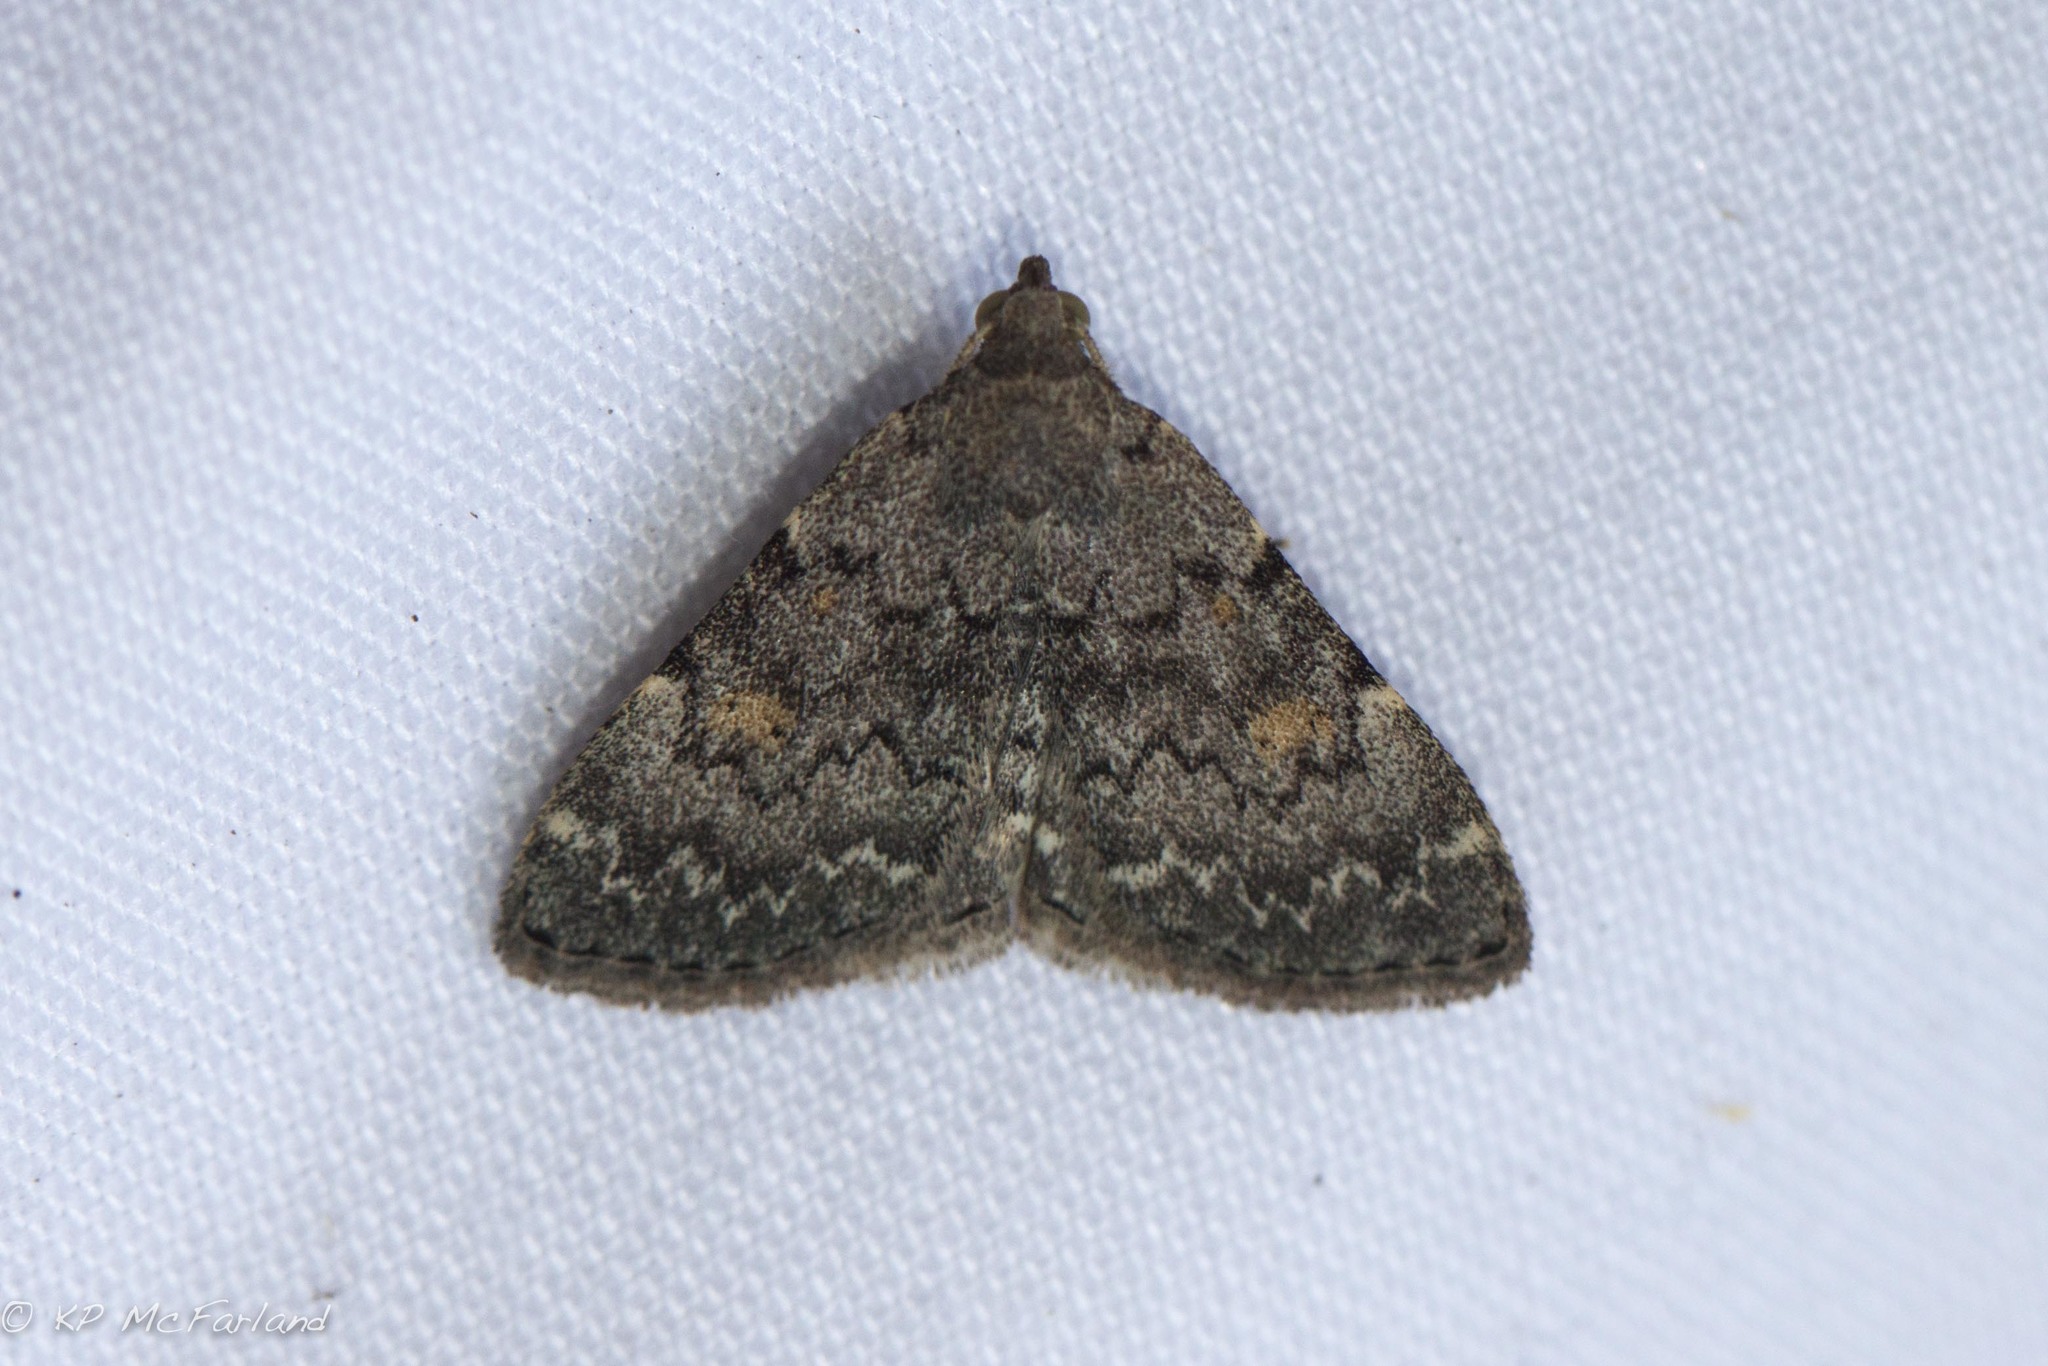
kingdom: Animalia
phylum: Arthropoda
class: Insecta
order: Lepidoptera
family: Erebidae
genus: Idia
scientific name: Idia aemula
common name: Common idia moth
